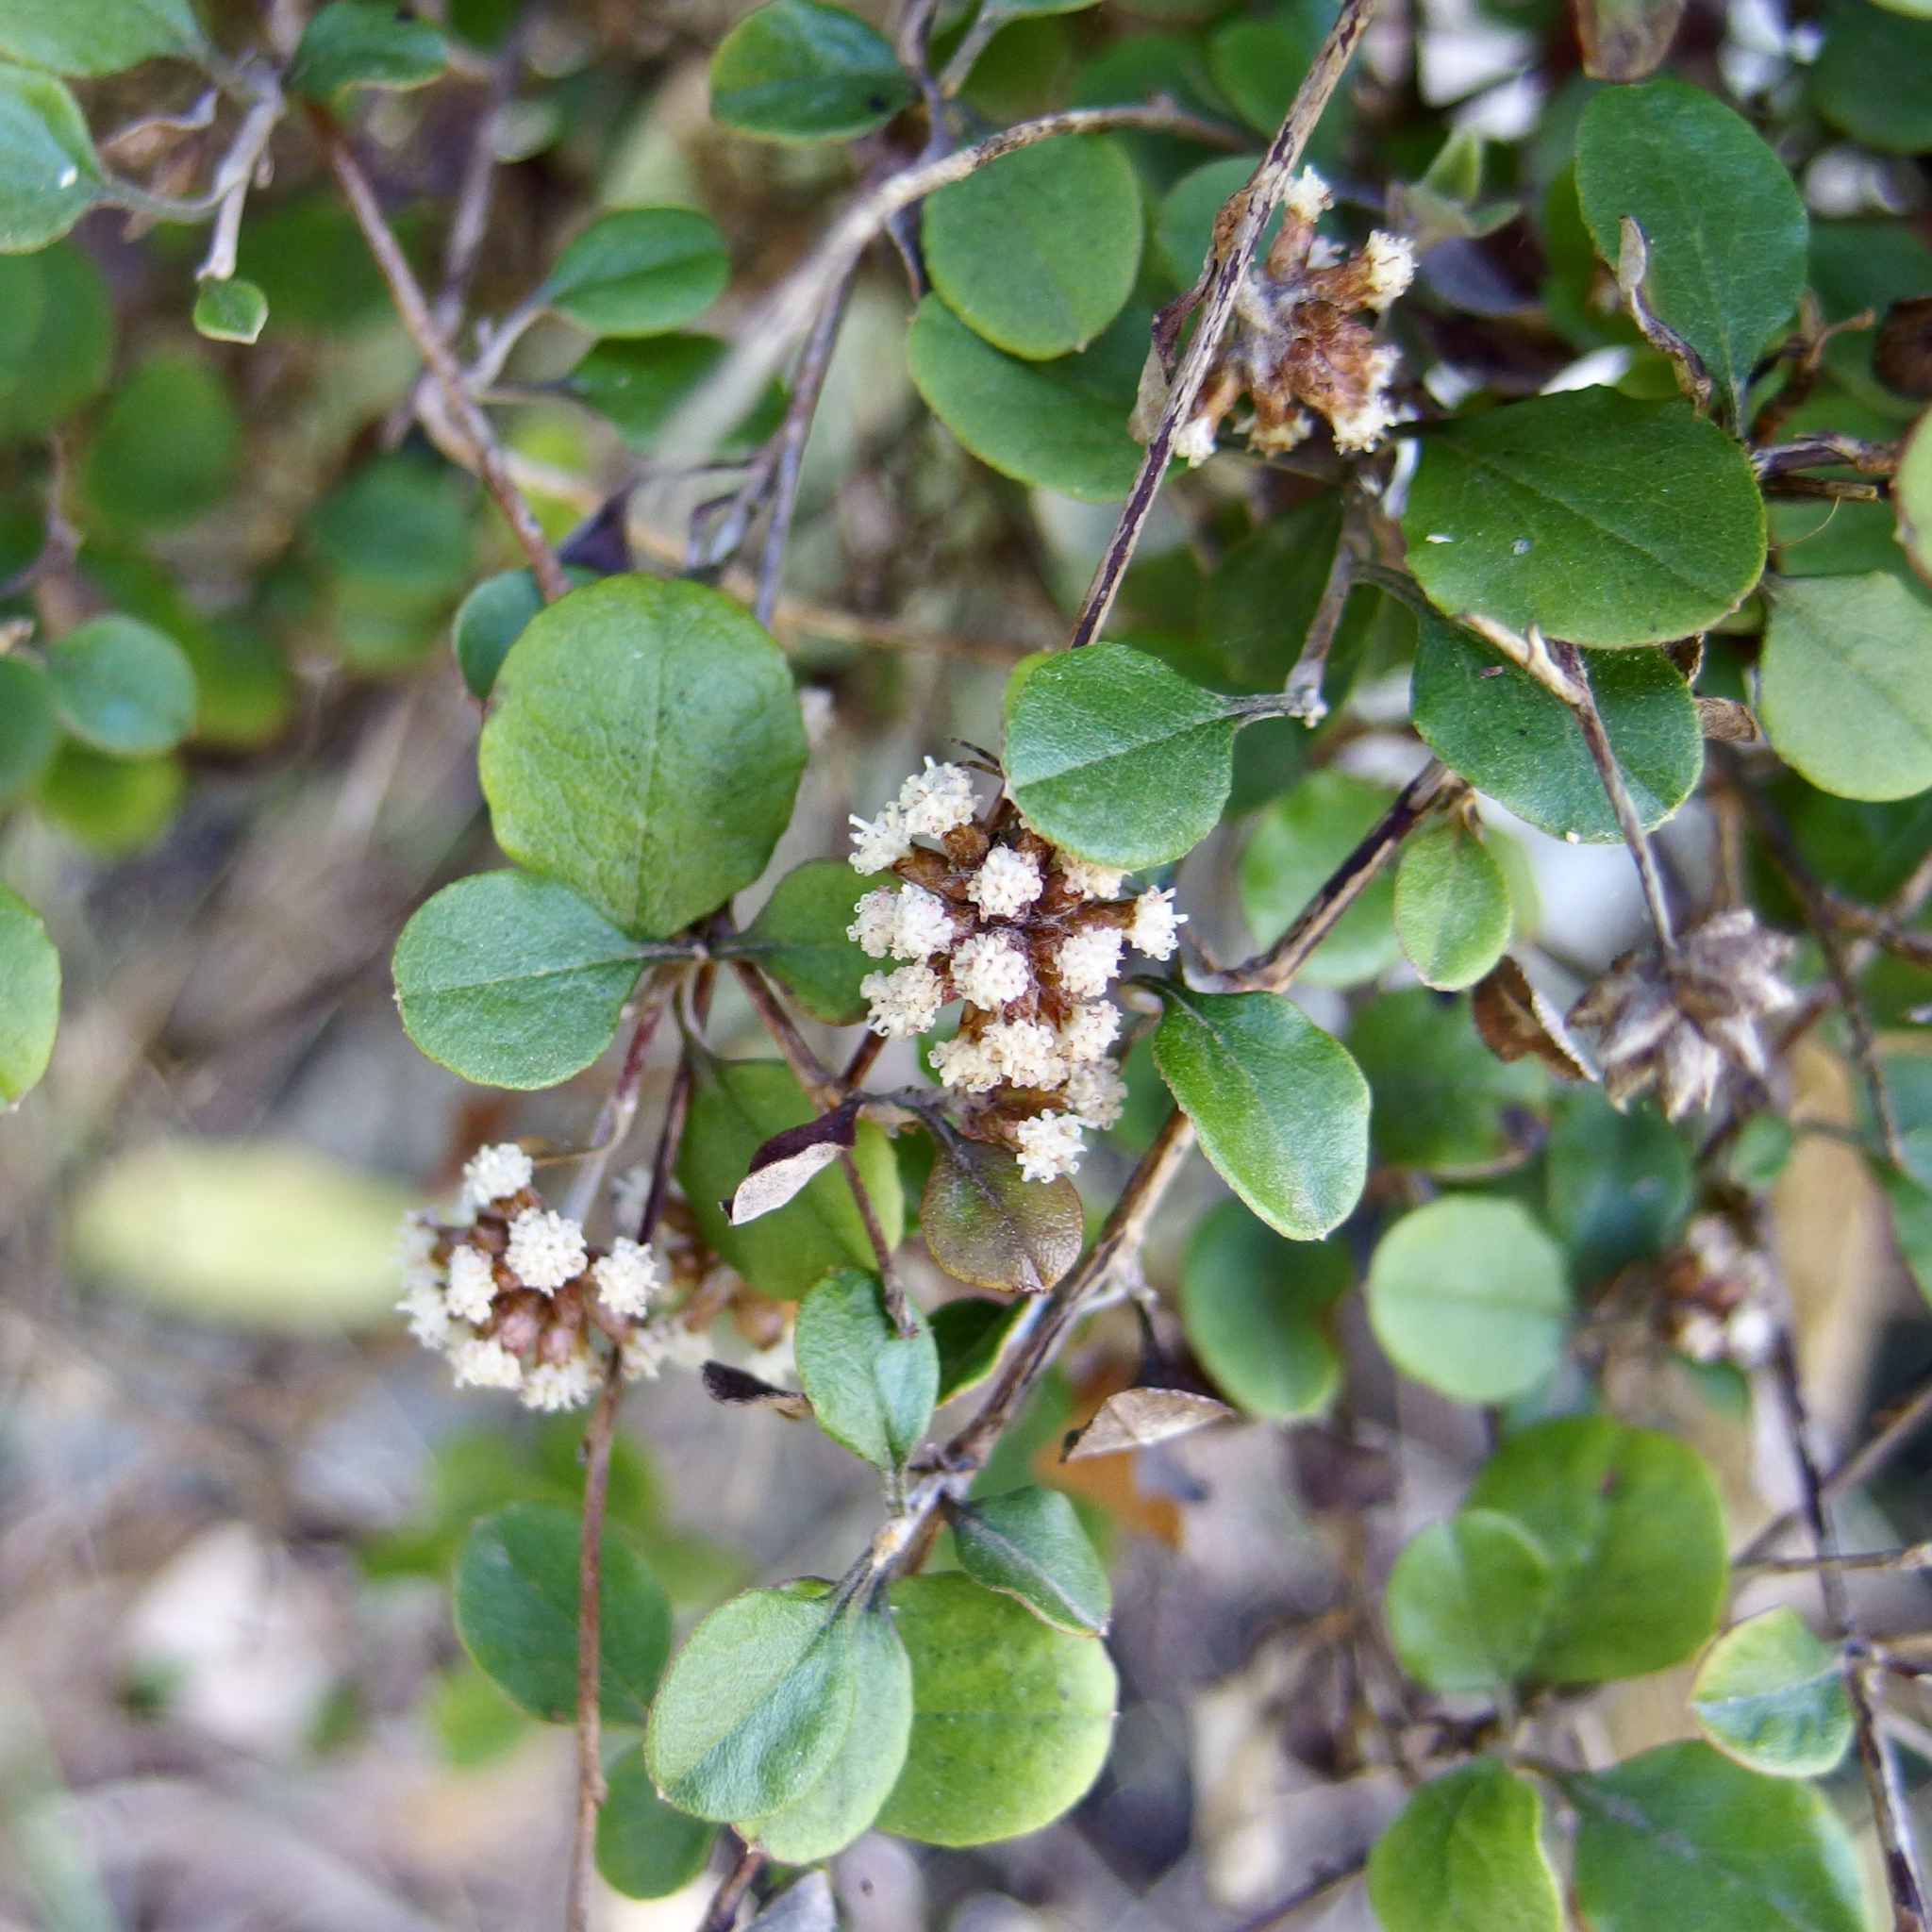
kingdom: Plantae
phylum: Tracheophyta
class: Magnoliopsida
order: Asterales
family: Asteraceae
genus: Ozothamnus
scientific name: Ozothamnus glomeratus
